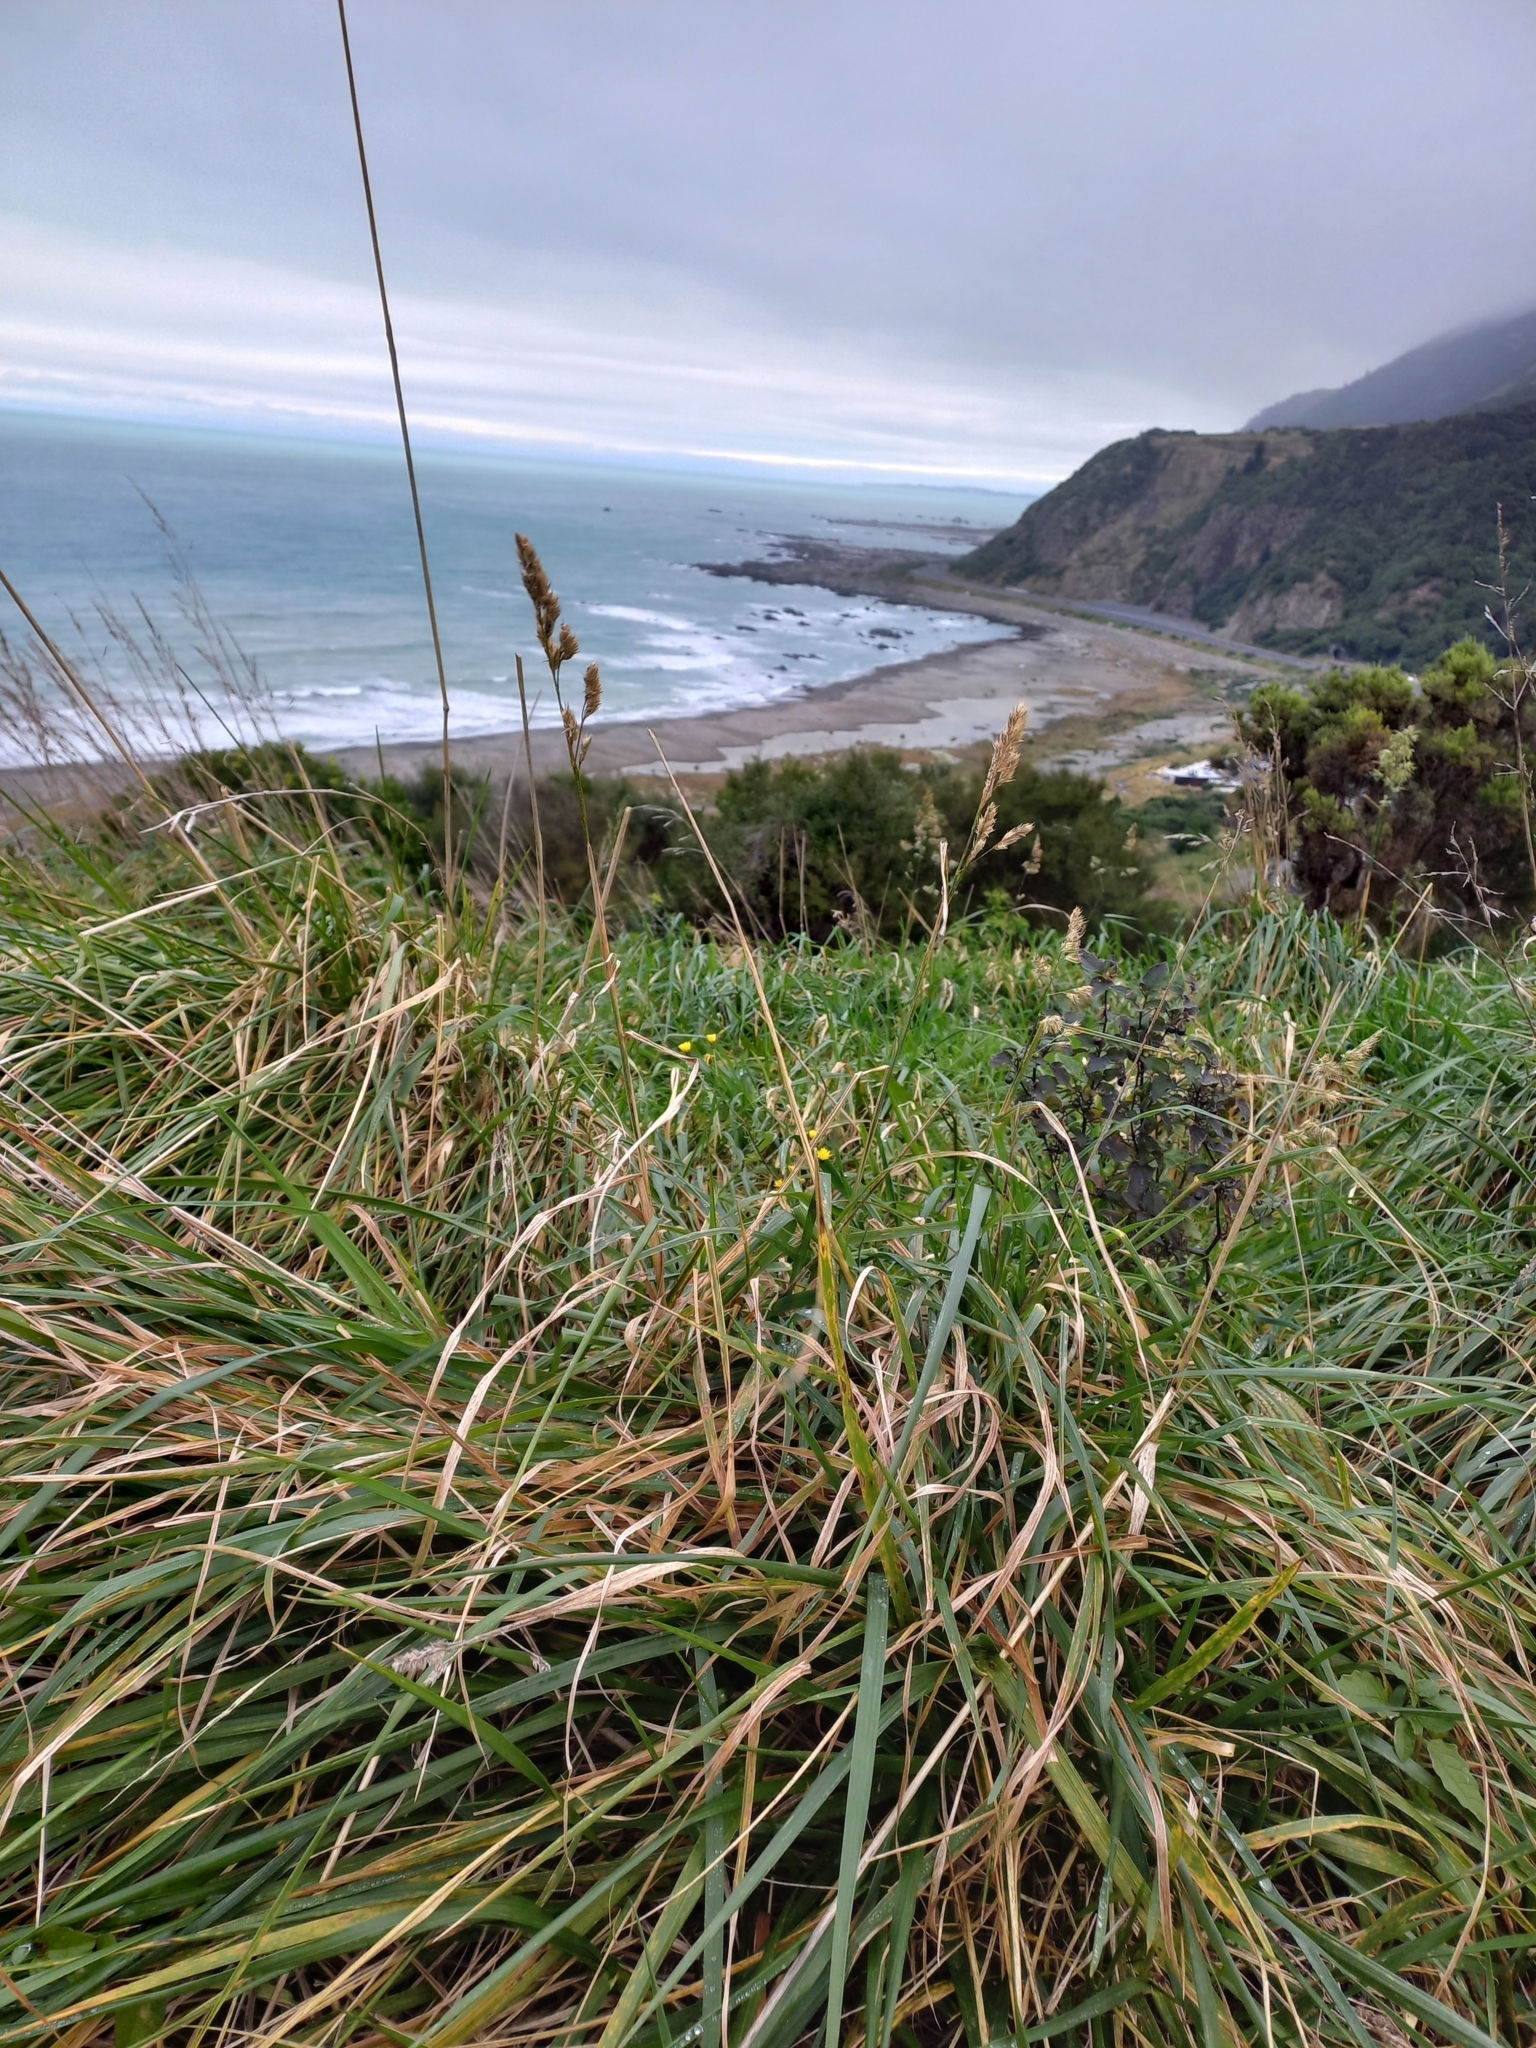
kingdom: Plantae
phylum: Tracheophyta
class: Liliopsida
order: Poales
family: Poaceae
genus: Dactylis
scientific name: Dactylis glomerata
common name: Orchardgrass
